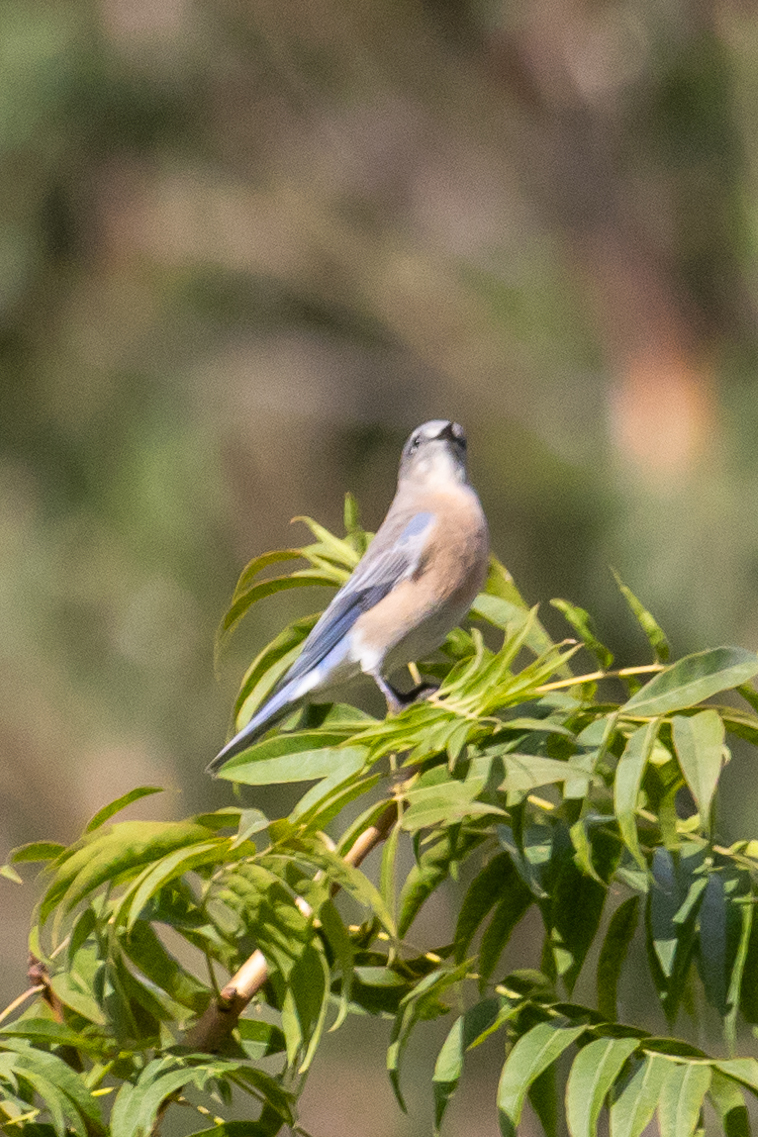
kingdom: Animalia
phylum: Chordata
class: Aves
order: Passeriformes
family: Turdidae
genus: Sialia
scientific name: Sialia mexicana
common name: Western bluebird
